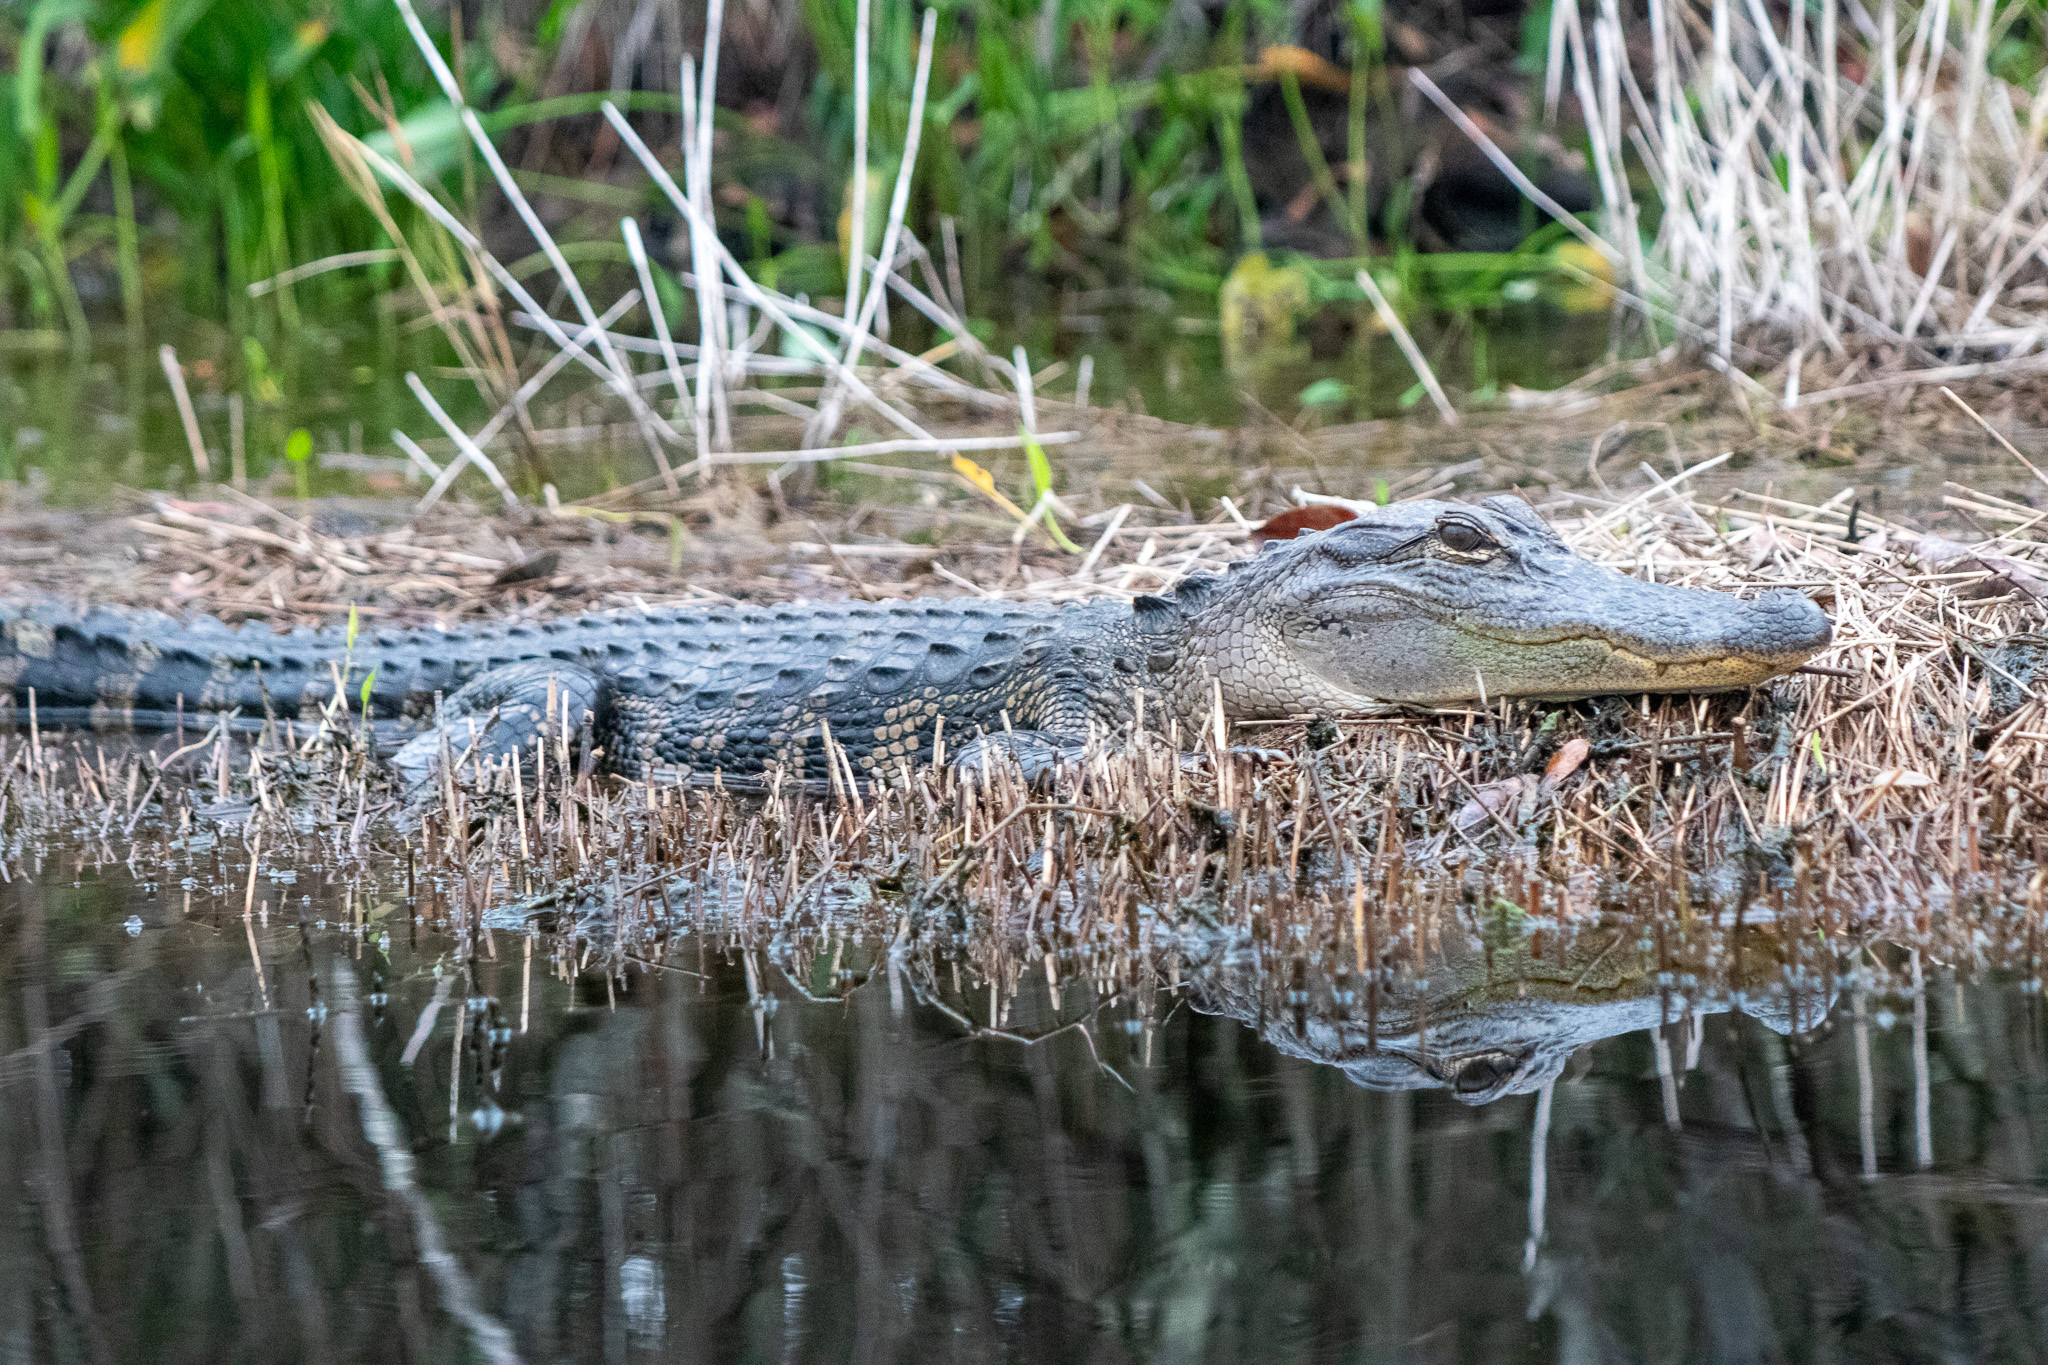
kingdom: Animalia
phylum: Chordata
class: Crocodylia
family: Alligatoridae
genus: Alligator
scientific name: Alligator mississippiensis
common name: American alligator
